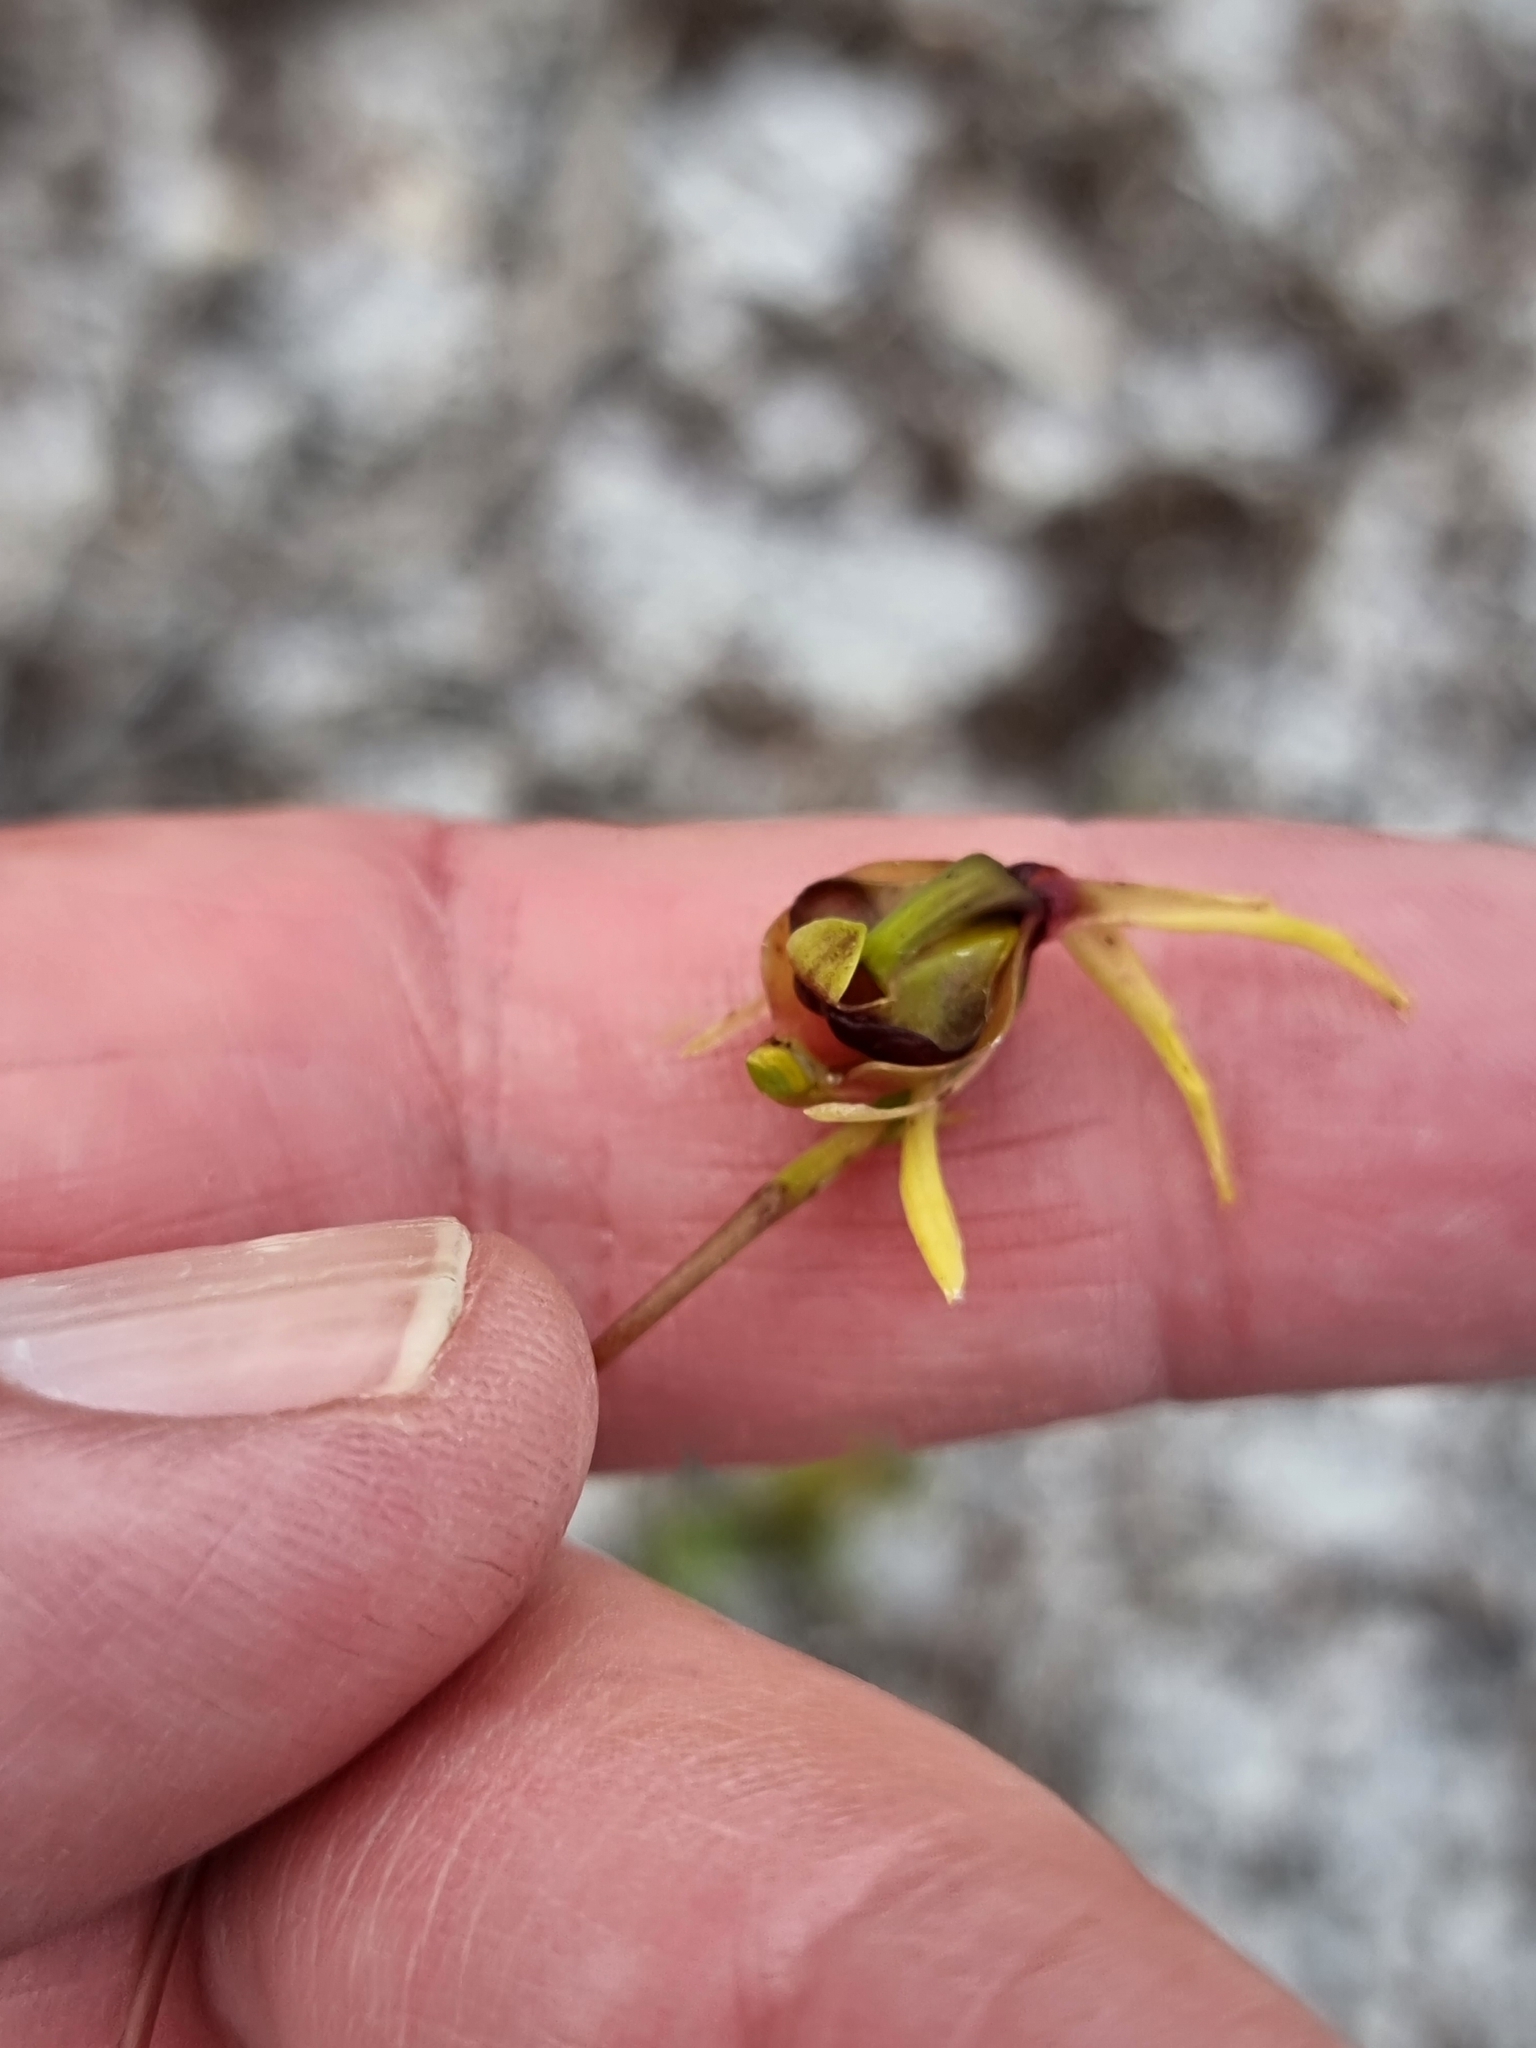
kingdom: Plantae
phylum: Tracheophyta
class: Liliopsida
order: Asparagales
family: Orchidaceae
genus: Caleana
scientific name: Caleana major
